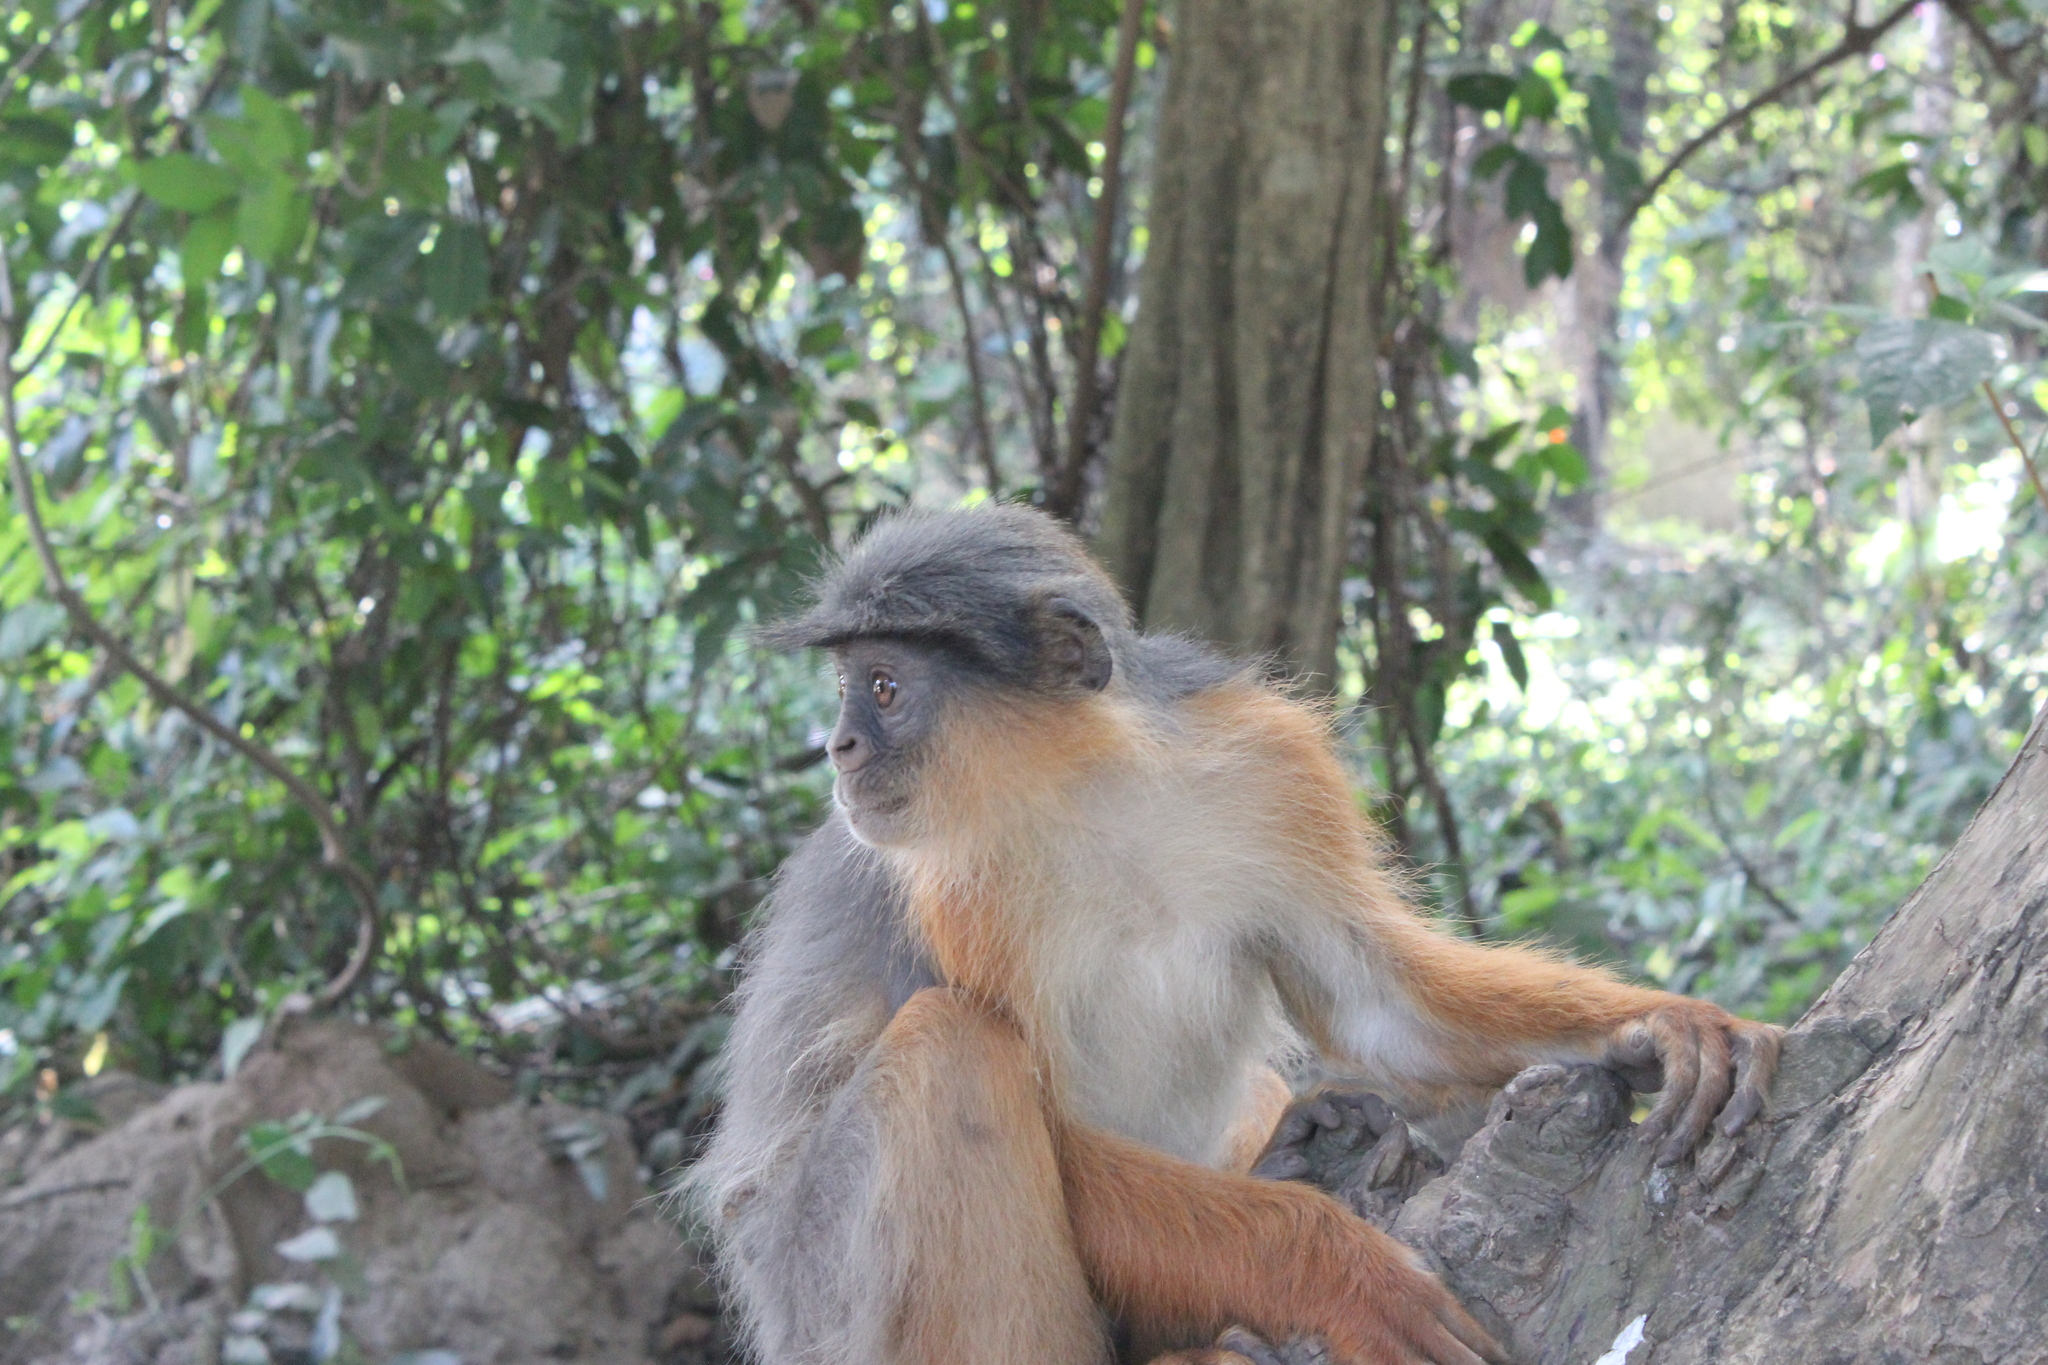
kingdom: Animalia
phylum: Chordata
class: Mammalia
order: Primates
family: Cercopithecidae
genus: Piliocolobus
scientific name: Piliocolobus badius
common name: Western red colobus
